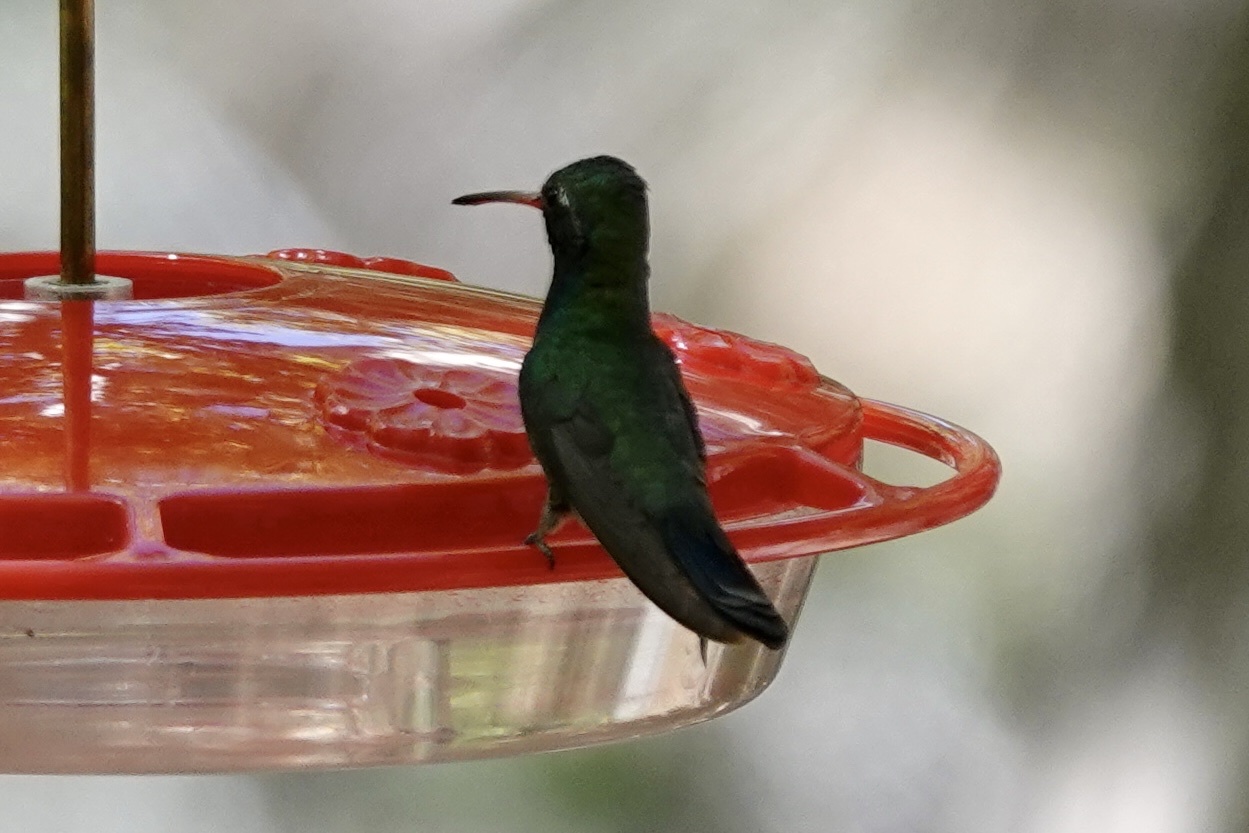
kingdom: Animalia
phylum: Chordata
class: Aves
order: Apodiformes
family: Trochilidae
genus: Cynanthus
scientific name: Cynanthus latirostris
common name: Broad-billed hummingbird
